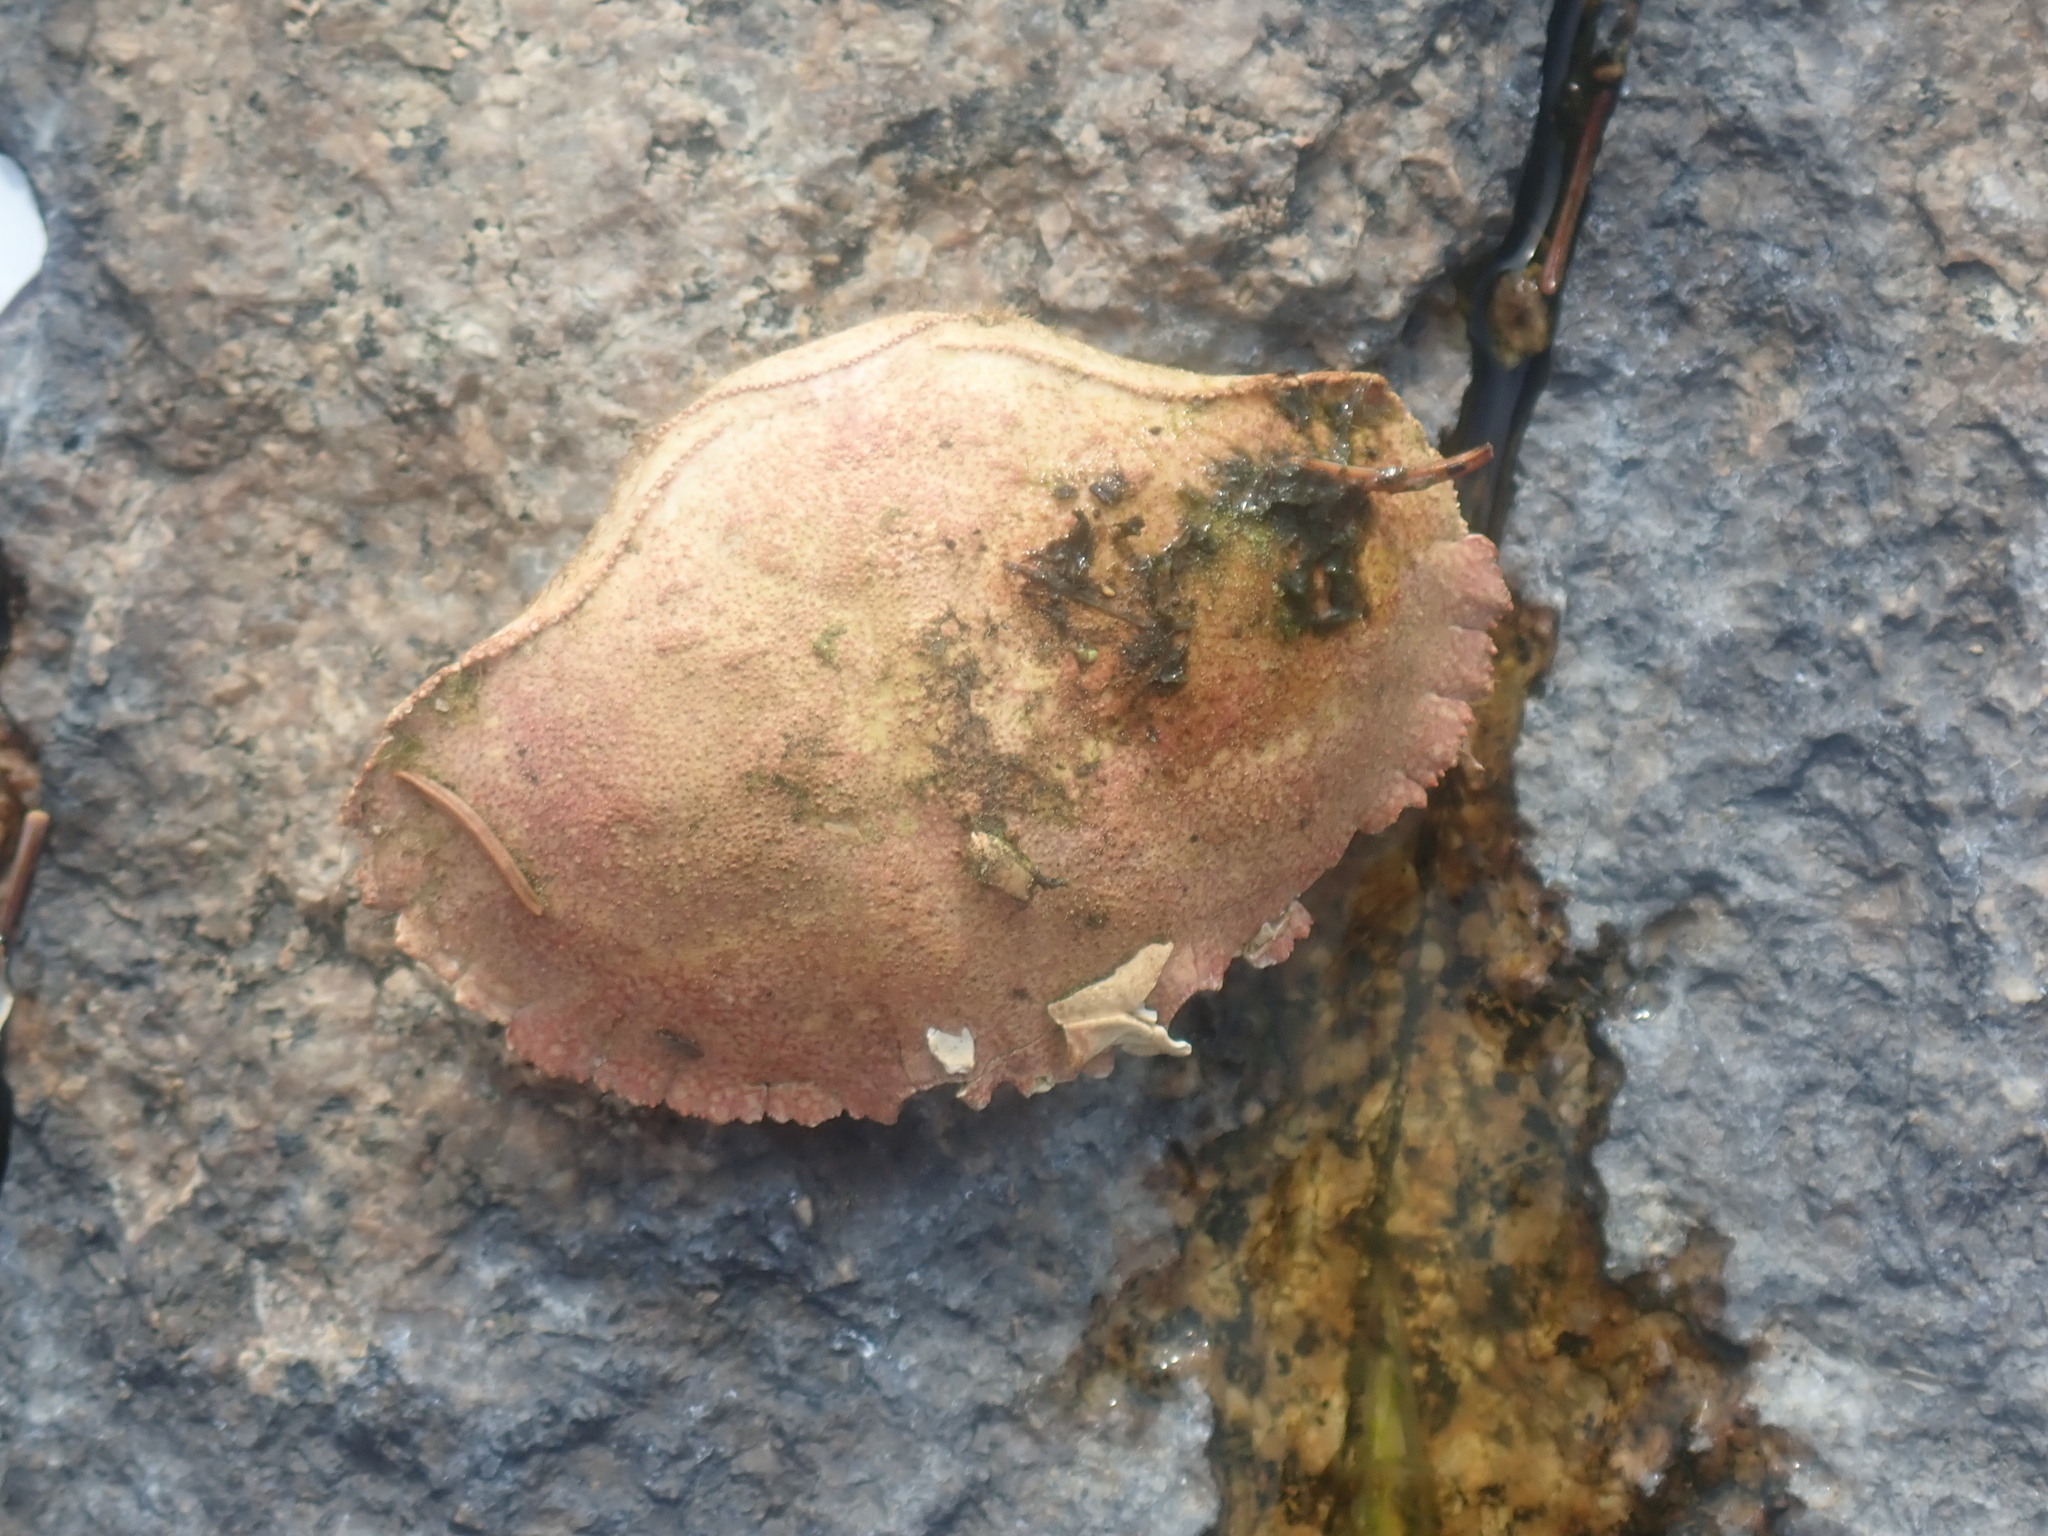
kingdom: Animalia
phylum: Arthropoda
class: Malacostraca
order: Decapoda
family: Cancridae
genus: Cancer
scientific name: Cancer borealis
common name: Jonah crab
